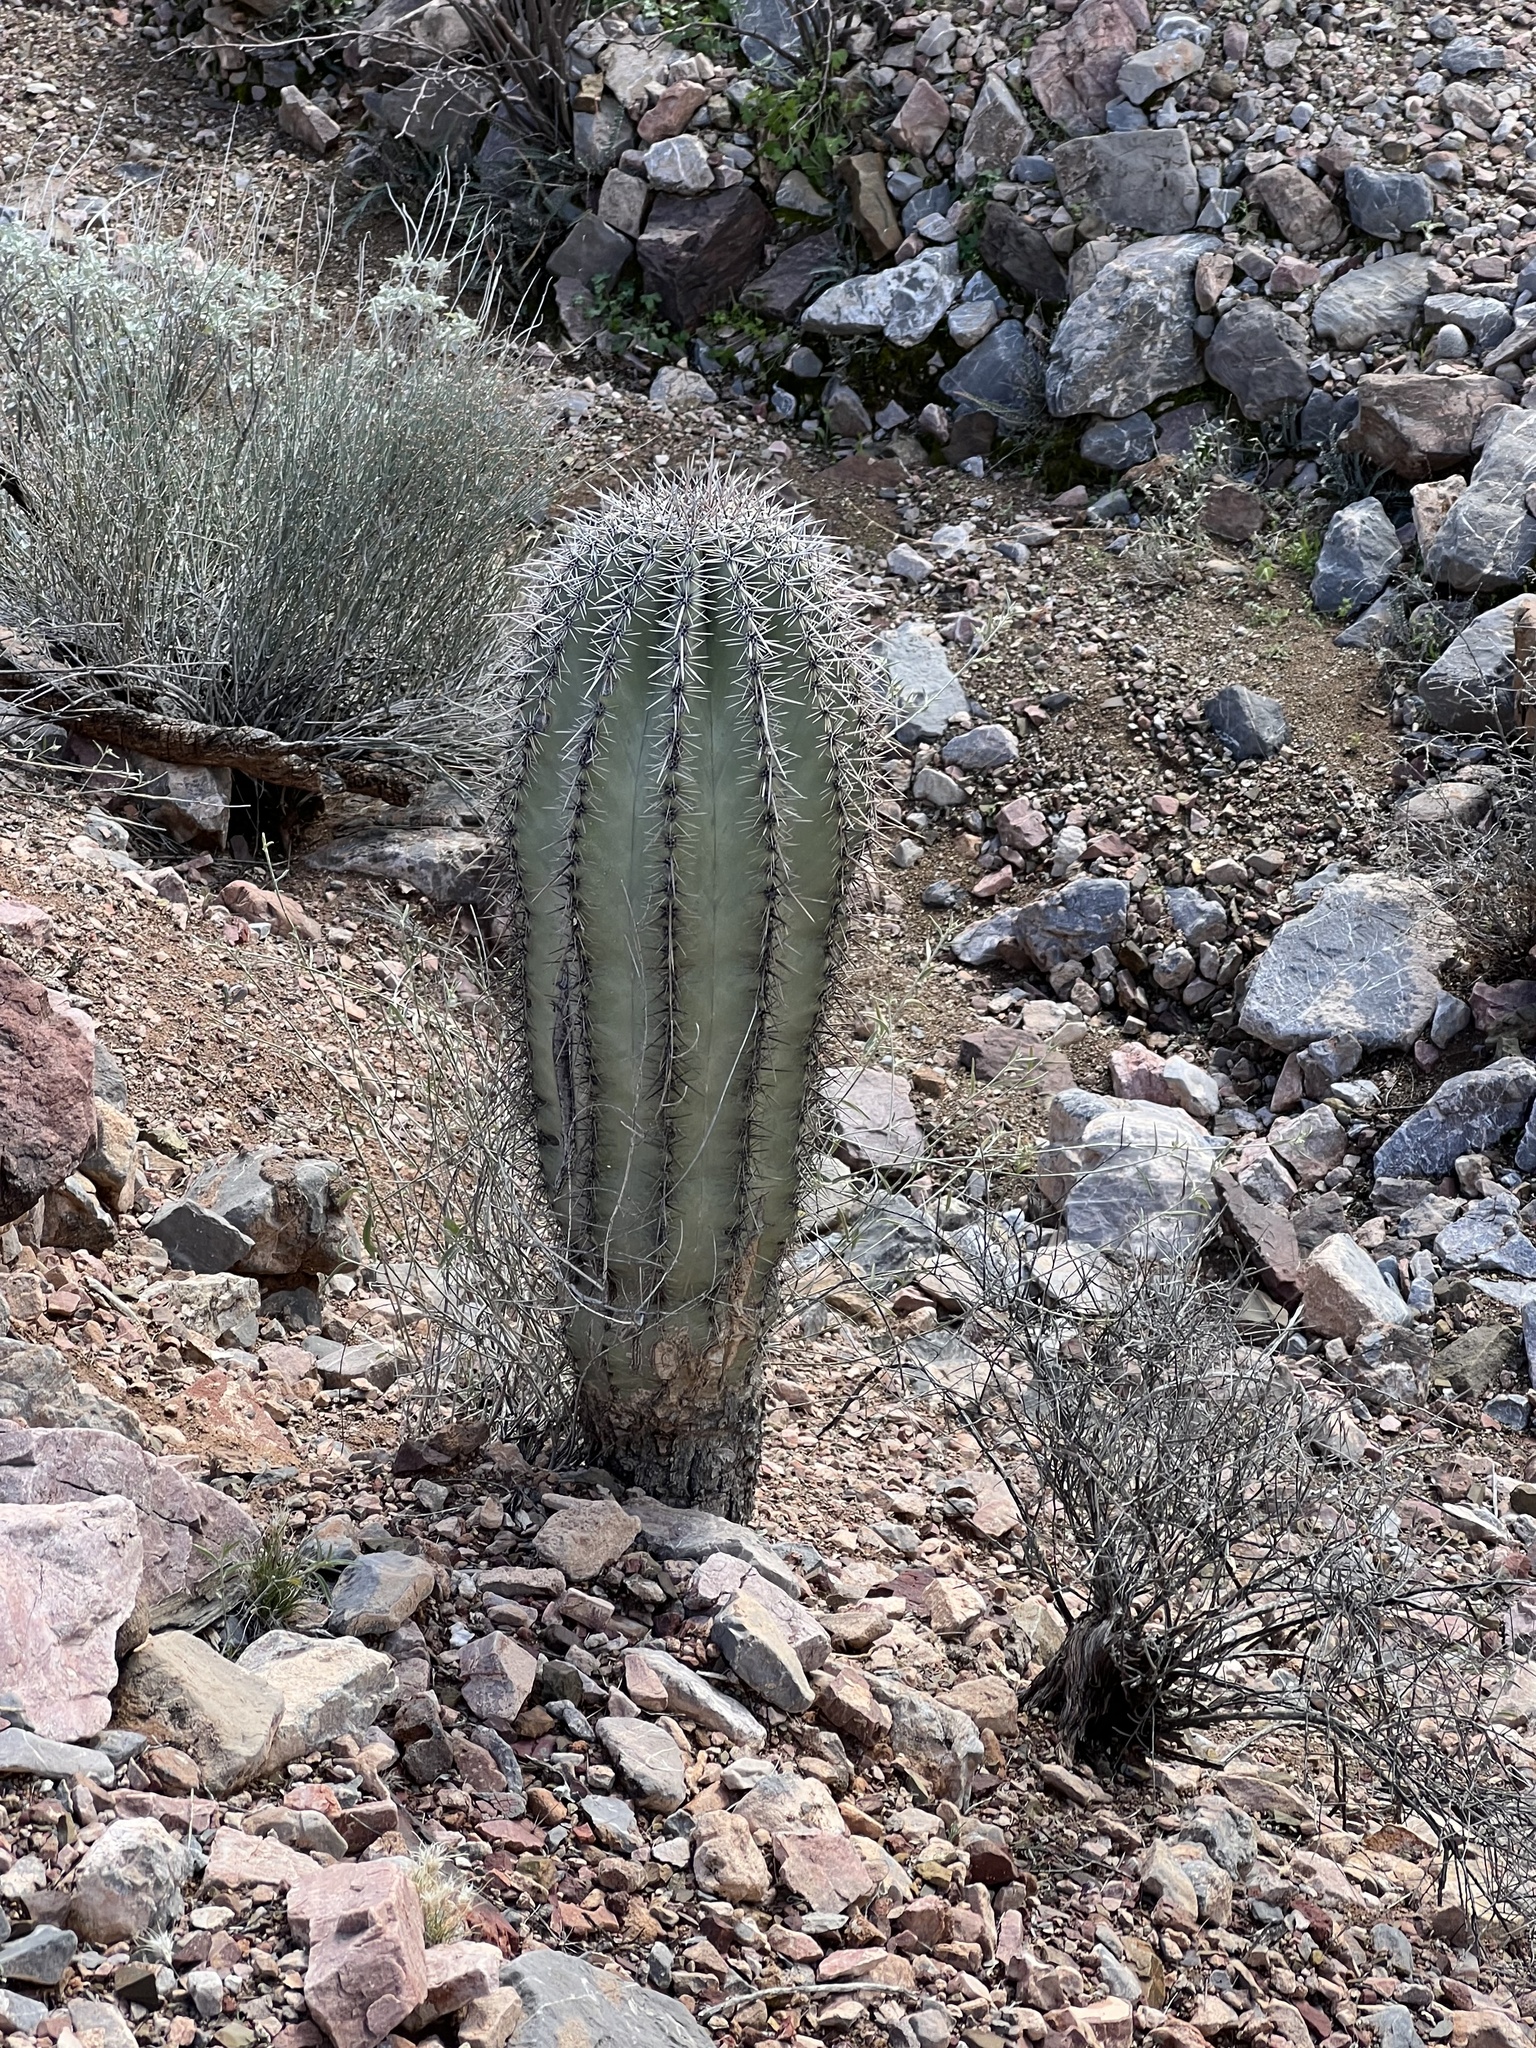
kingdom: Plantae
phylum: Tracheophyta
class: Magnoliopsida
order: Caryophyllales
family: Cactaceae
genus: Carnegiea
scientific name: Carnegiea gigantea
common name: Saguaro
